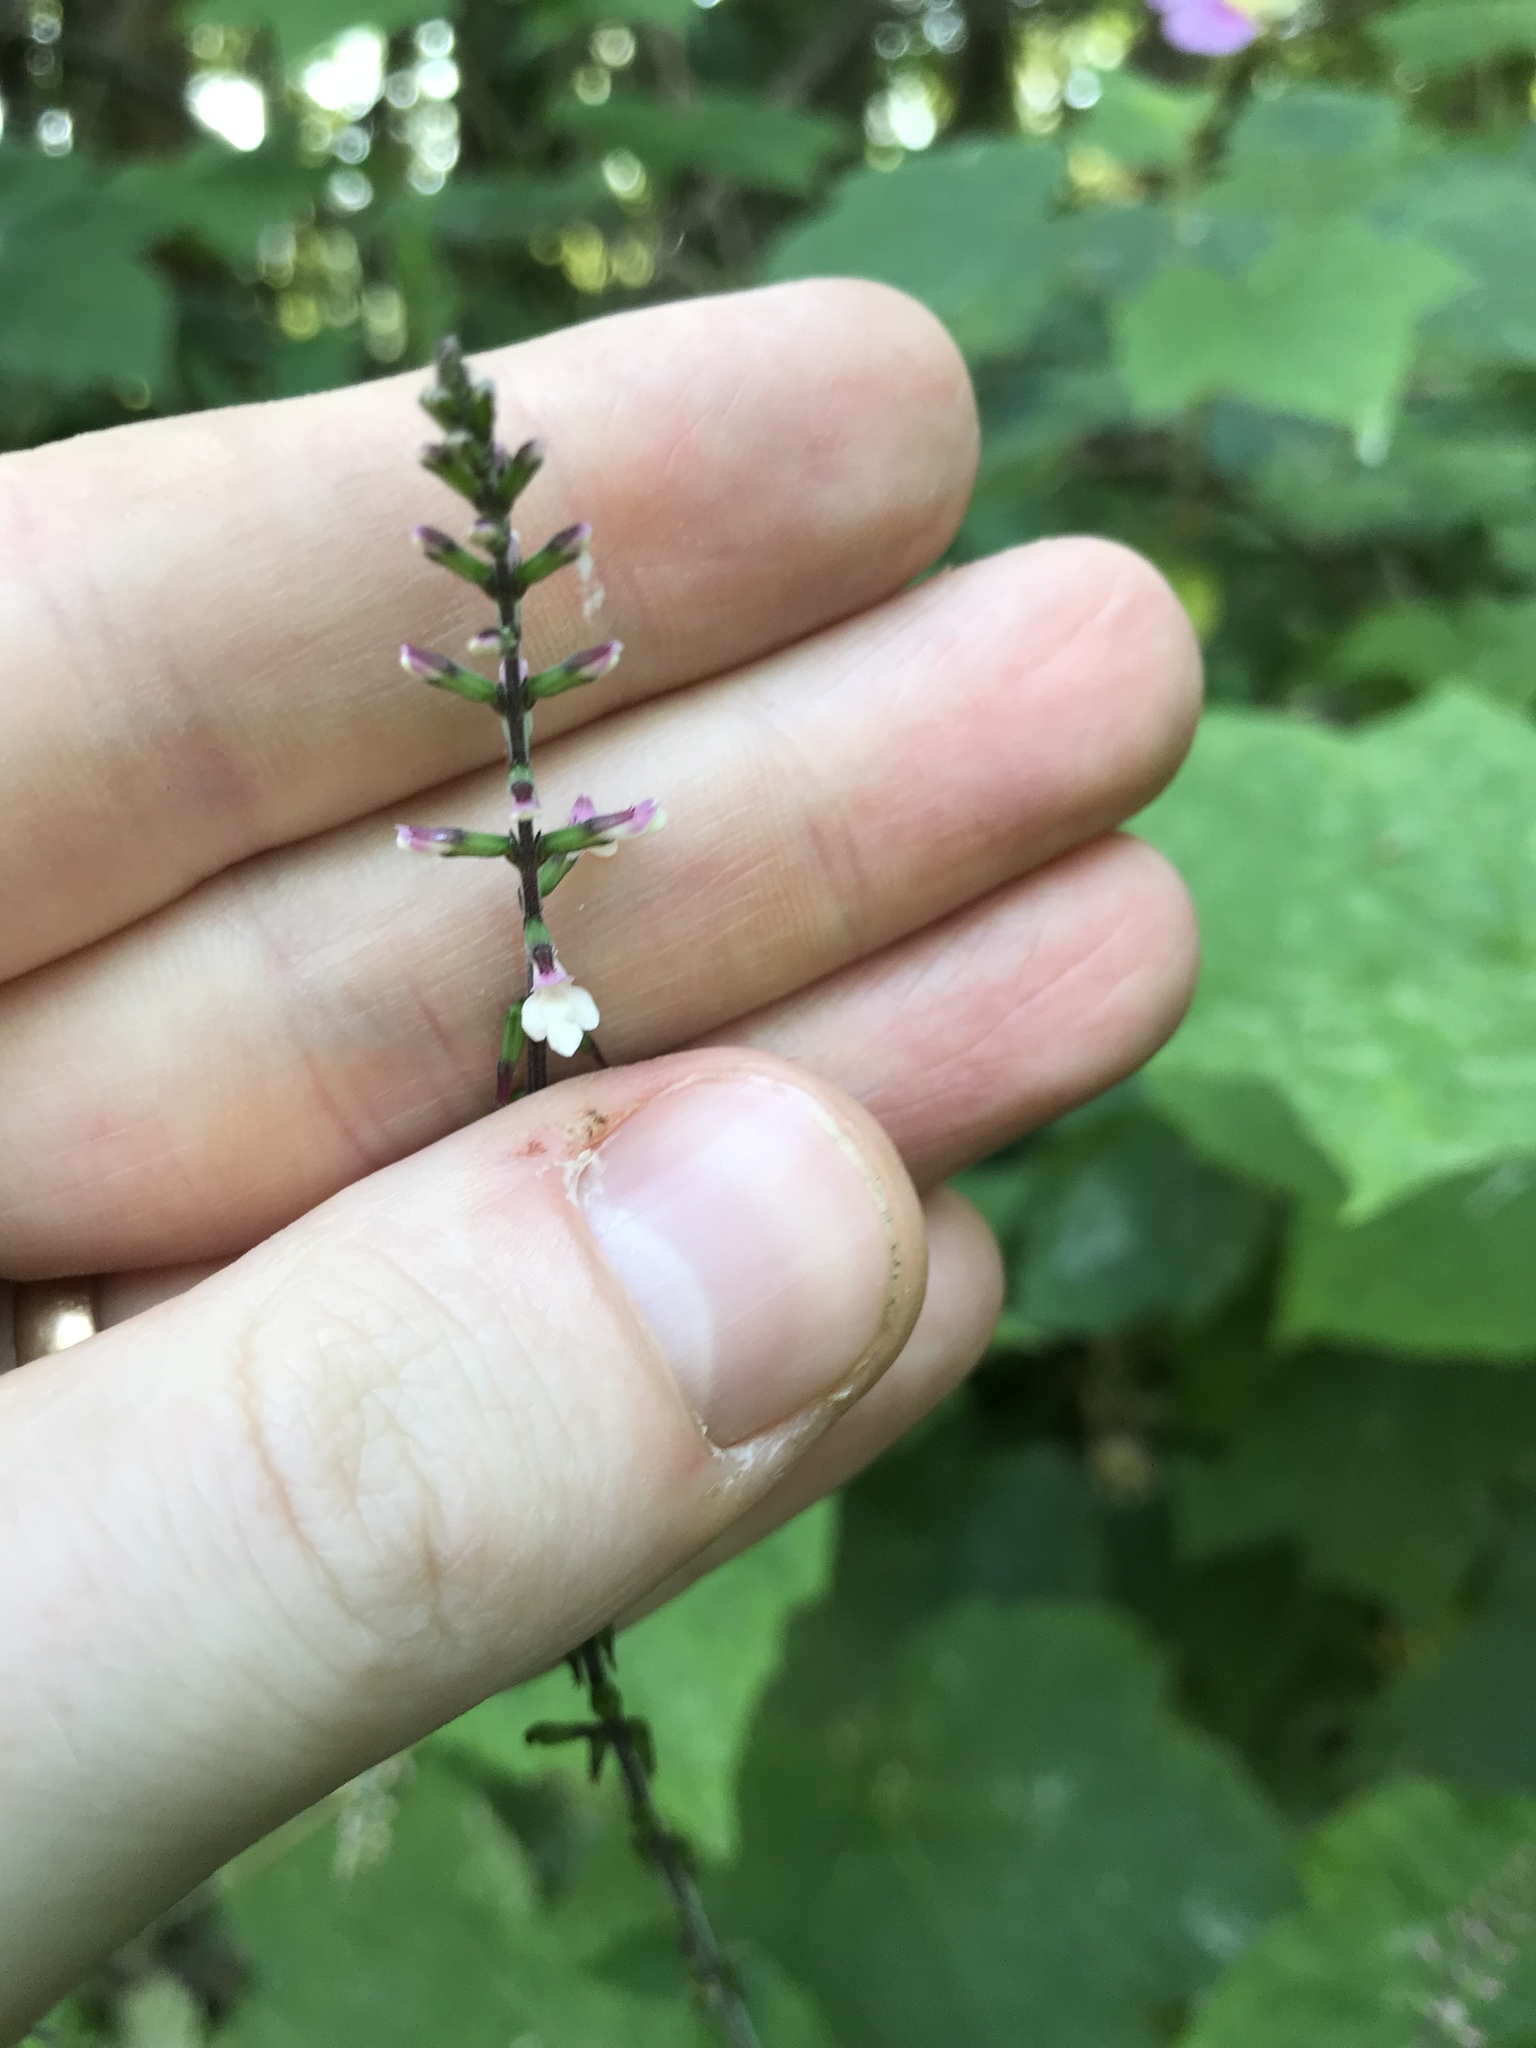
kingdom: Plantae
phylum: Tracheophyta
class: Magnoliopsida
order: Lamiales
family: Phrymaceae
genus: Phryma
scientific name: Phryma leptostachya
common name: American lopseed
